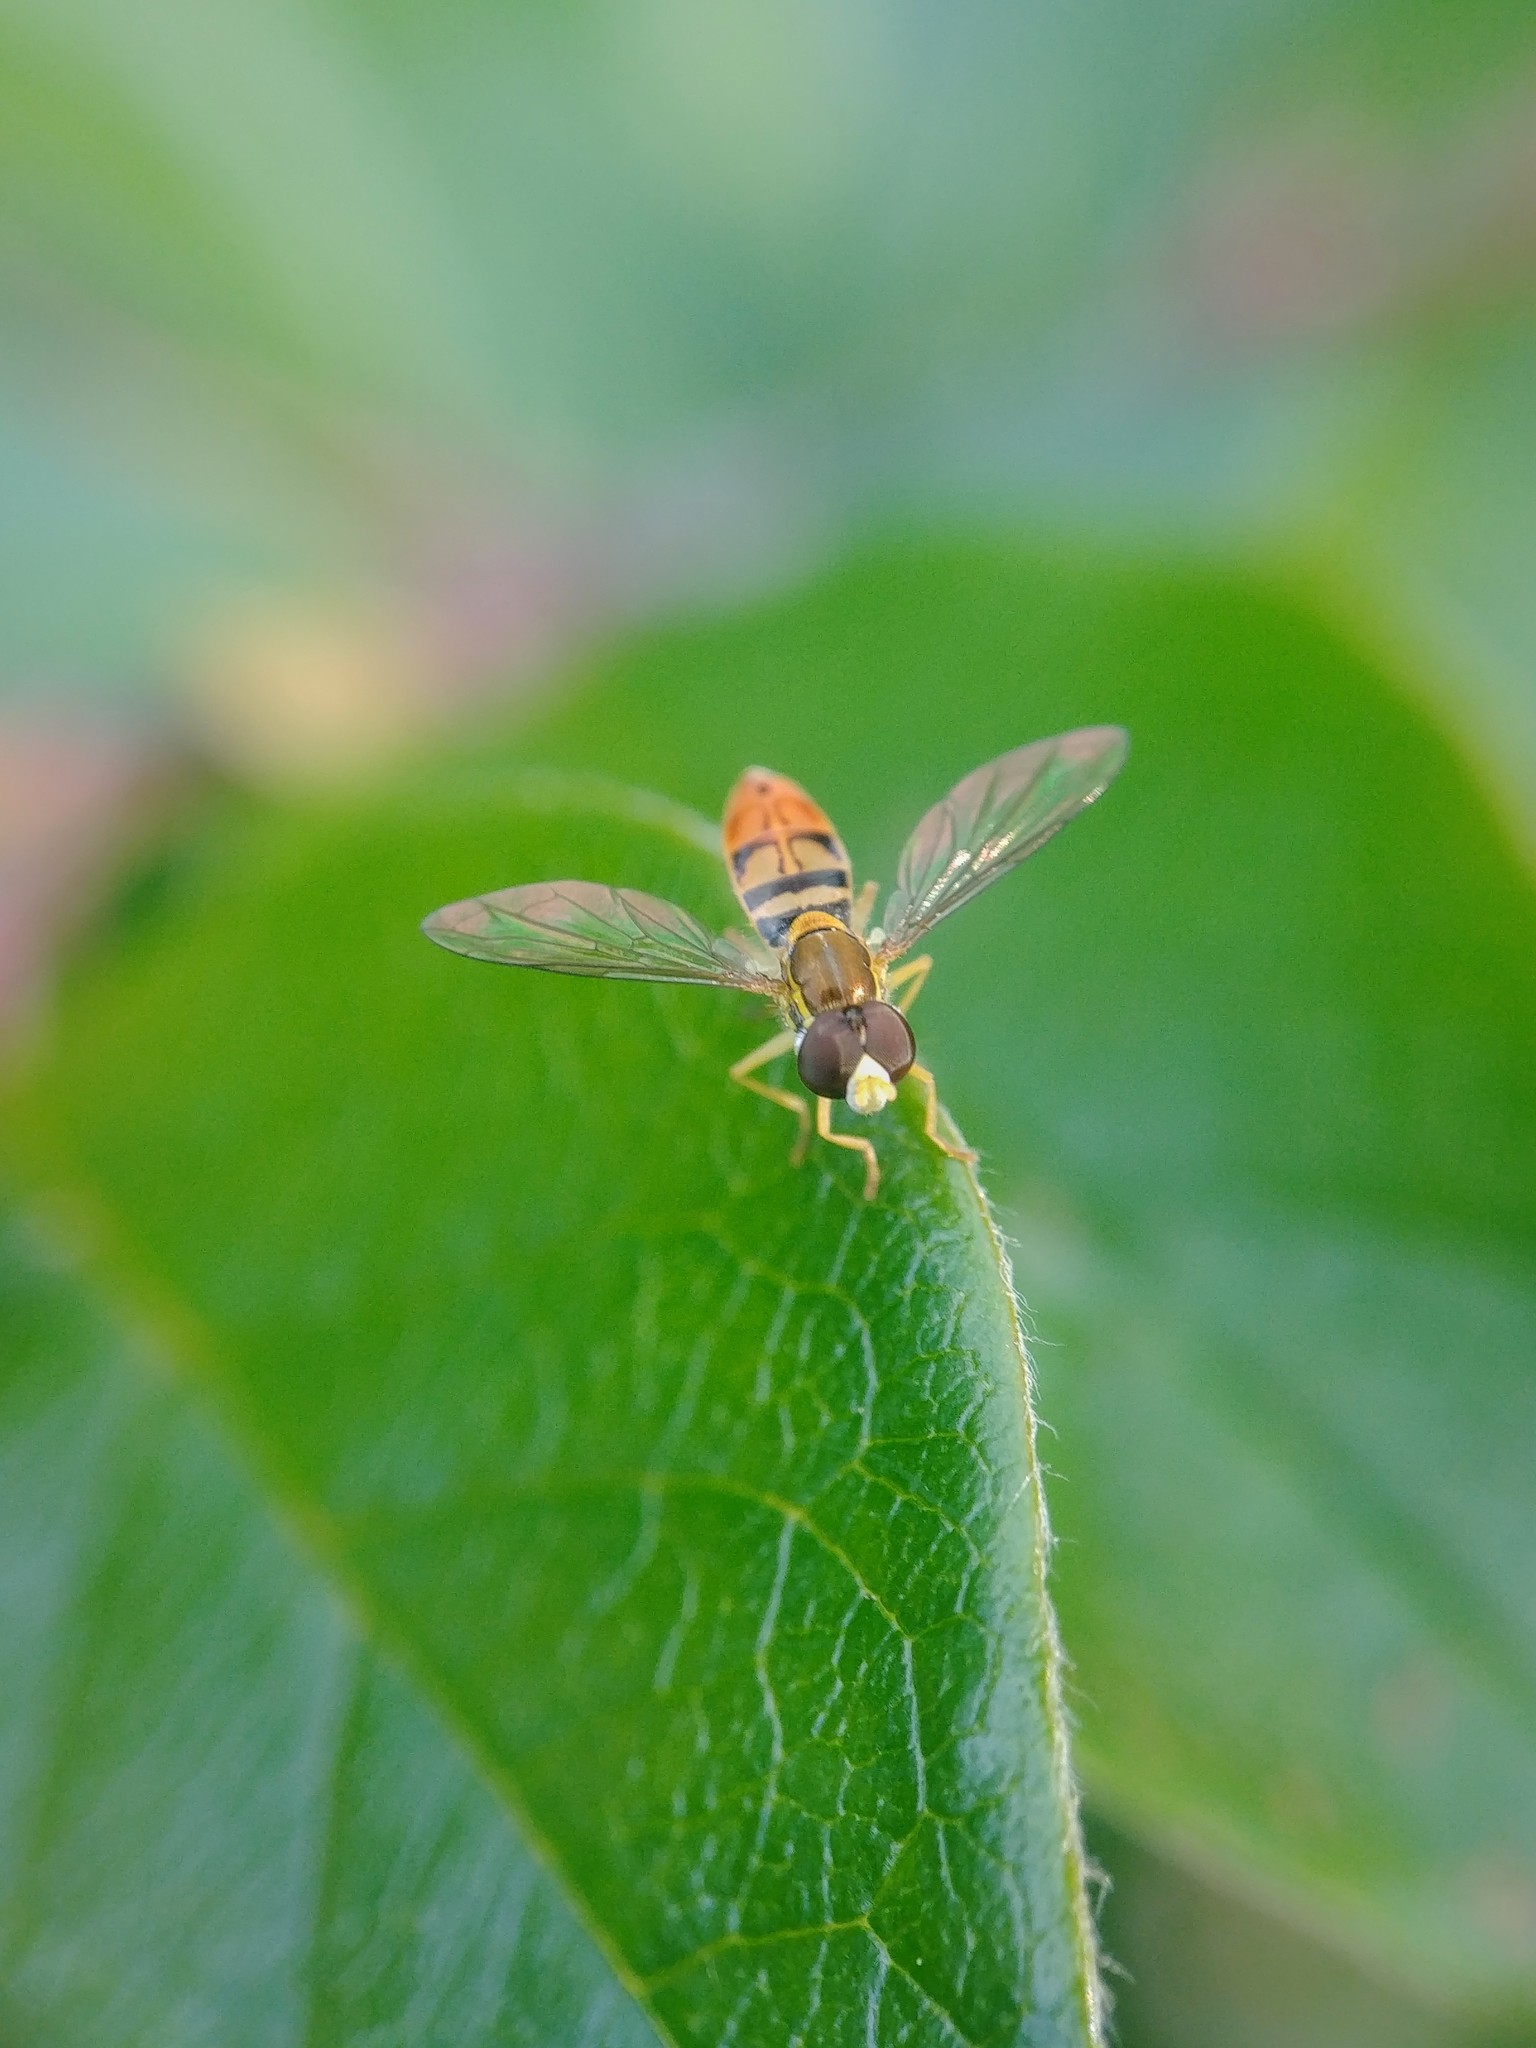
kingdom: Animalia
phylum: Arthropoda
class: Insecta
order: Diptera
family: Syrphidae
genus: Toxomerus
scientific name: Toxomerus marginatus
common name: Syrphid fly
